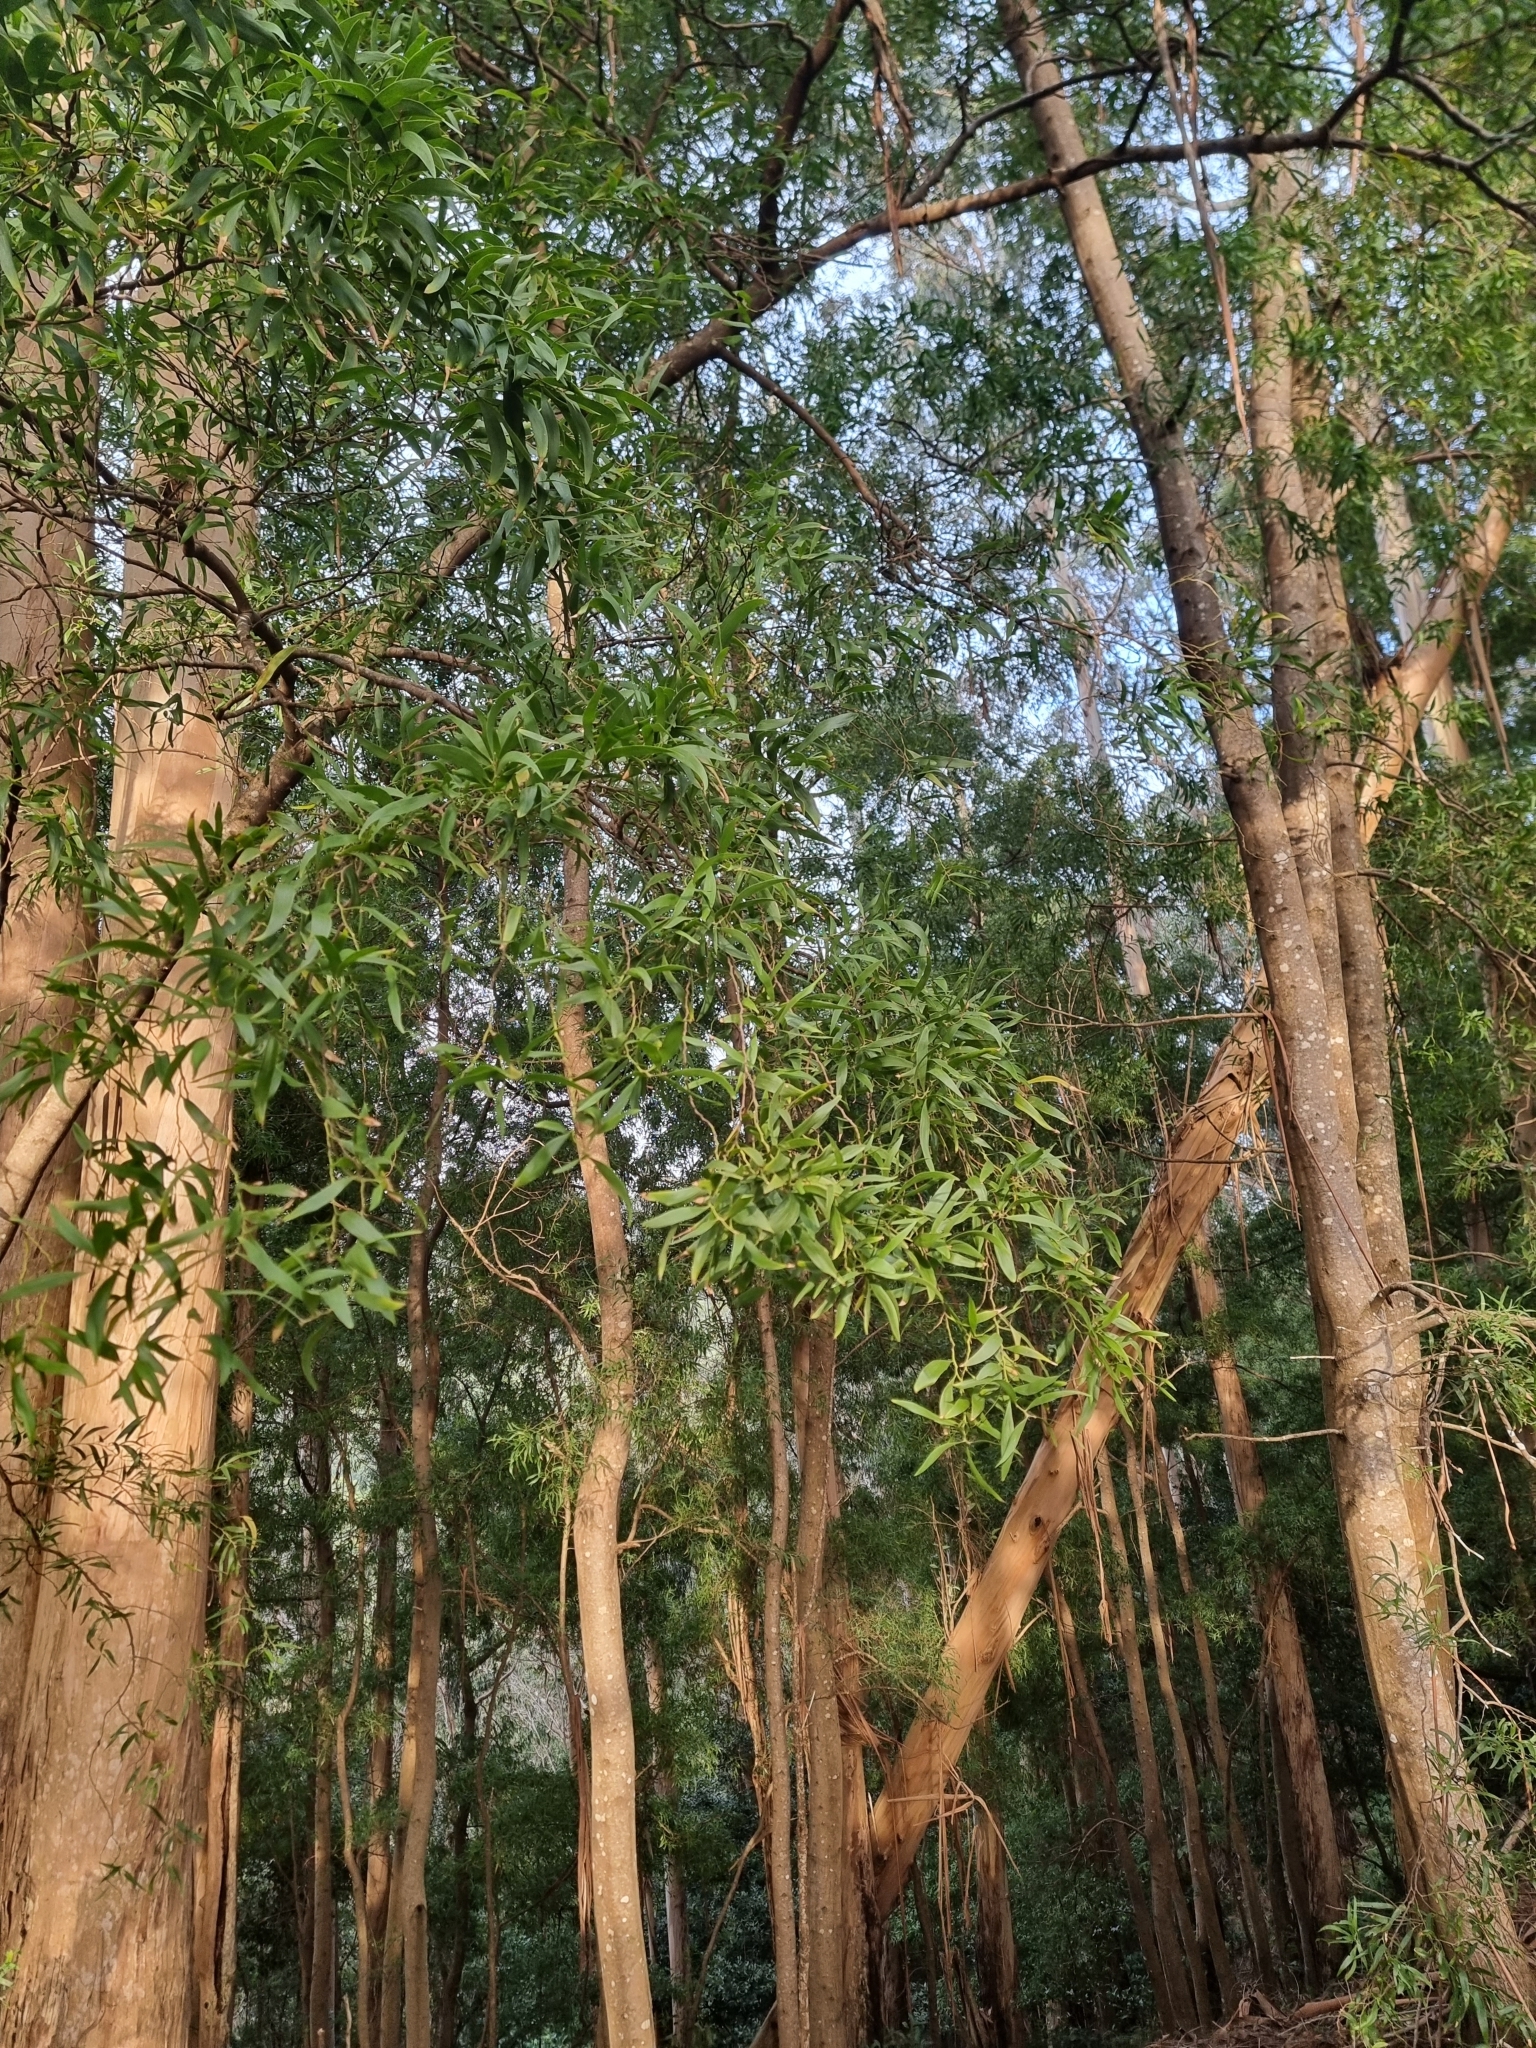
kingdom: Plantae
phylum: Tracheophyta
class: Magnoliopsida
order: Fabales
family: Fabaceae
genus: Acacia
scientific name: Acacia melanoxylon
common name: Blackwood
